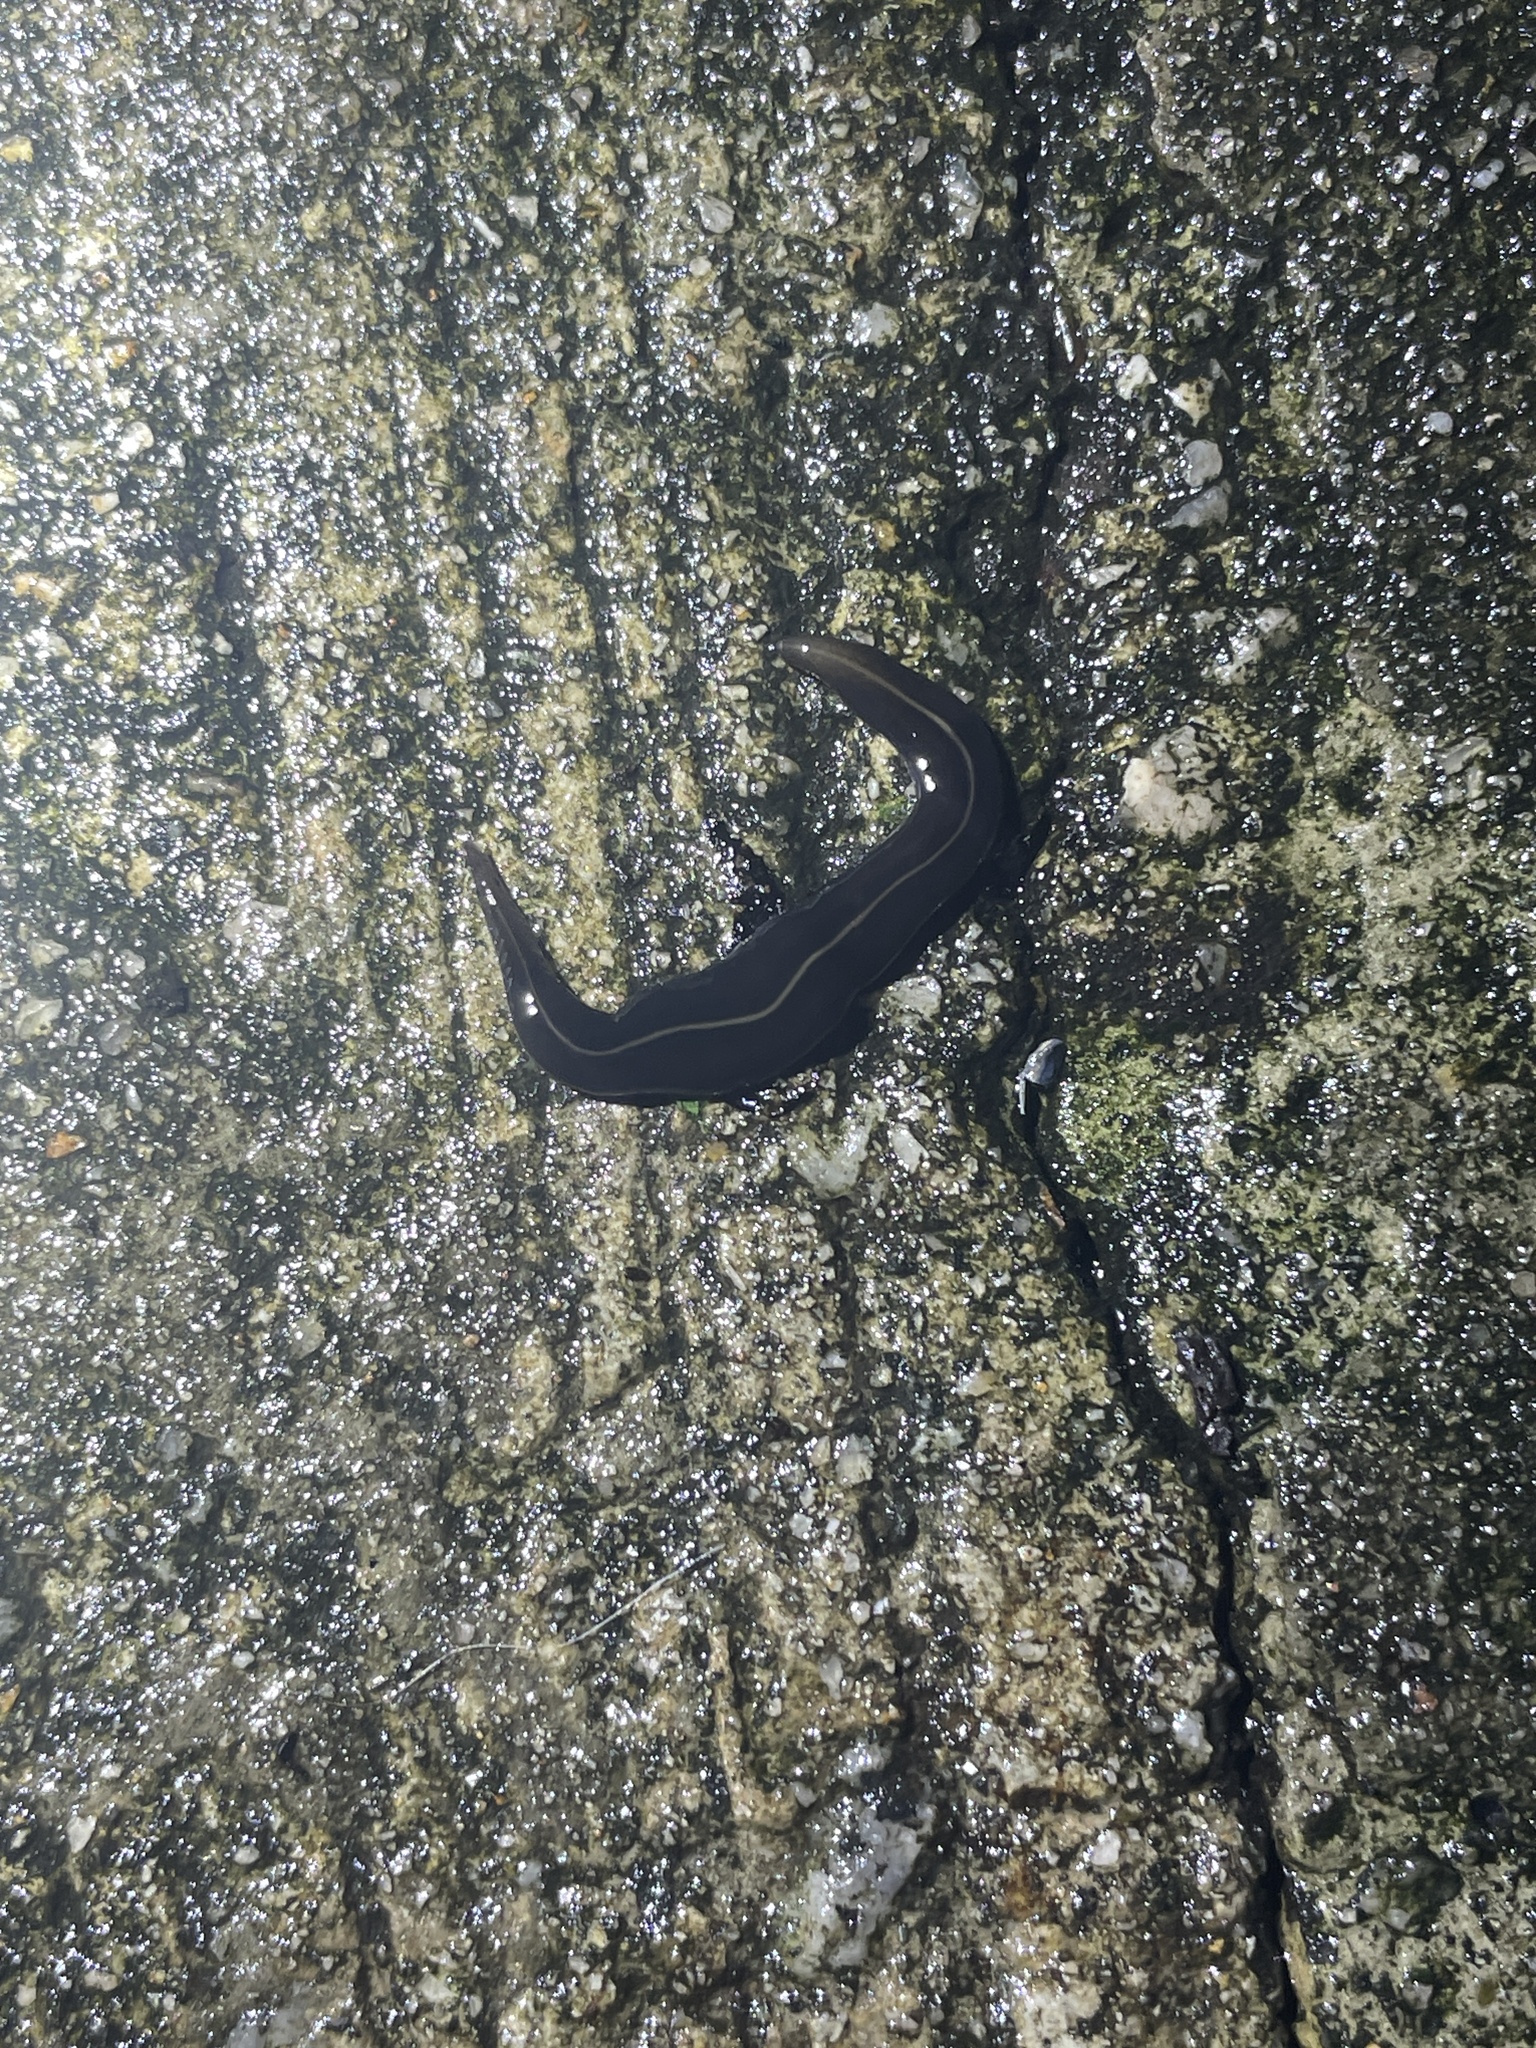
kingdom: Animalia
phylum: Platyhelminthes
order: Tricladida
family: Geoplanidae
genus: Platydemus
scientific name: Platydemus manokwari
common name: New guinea flatworm
